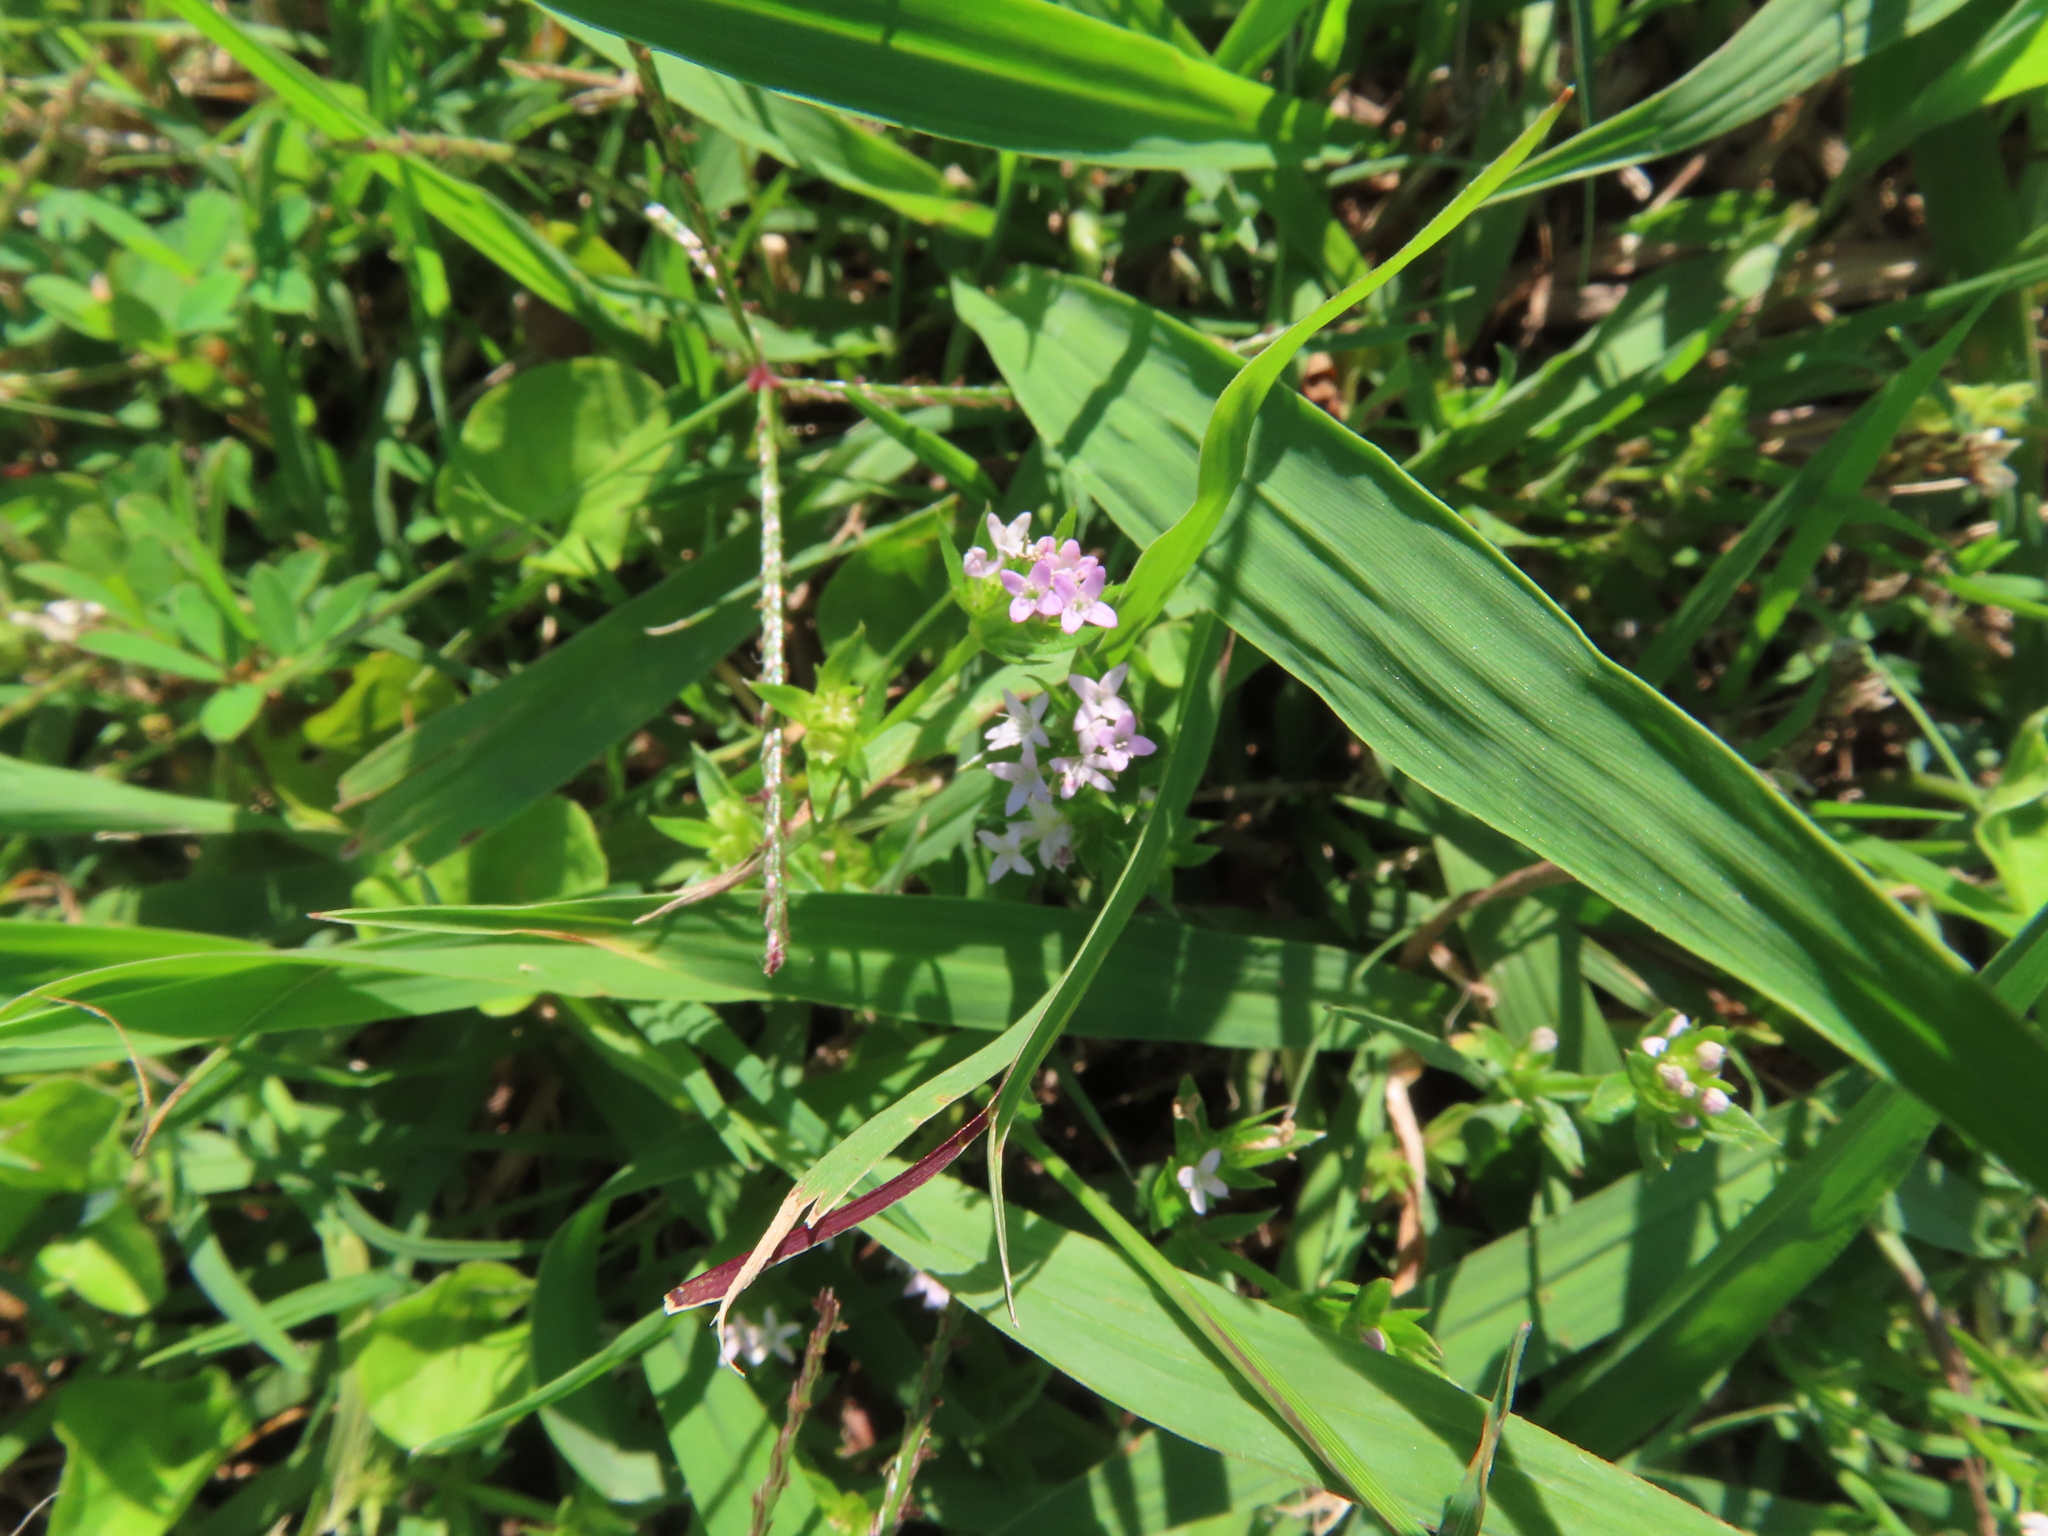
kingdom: Plantae
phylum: Tracheophyta
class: Magnoliopsida
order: Gentianales
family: Rubiaceae
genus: Sherardia
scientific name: Sherardia arvensis
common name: Field madder
